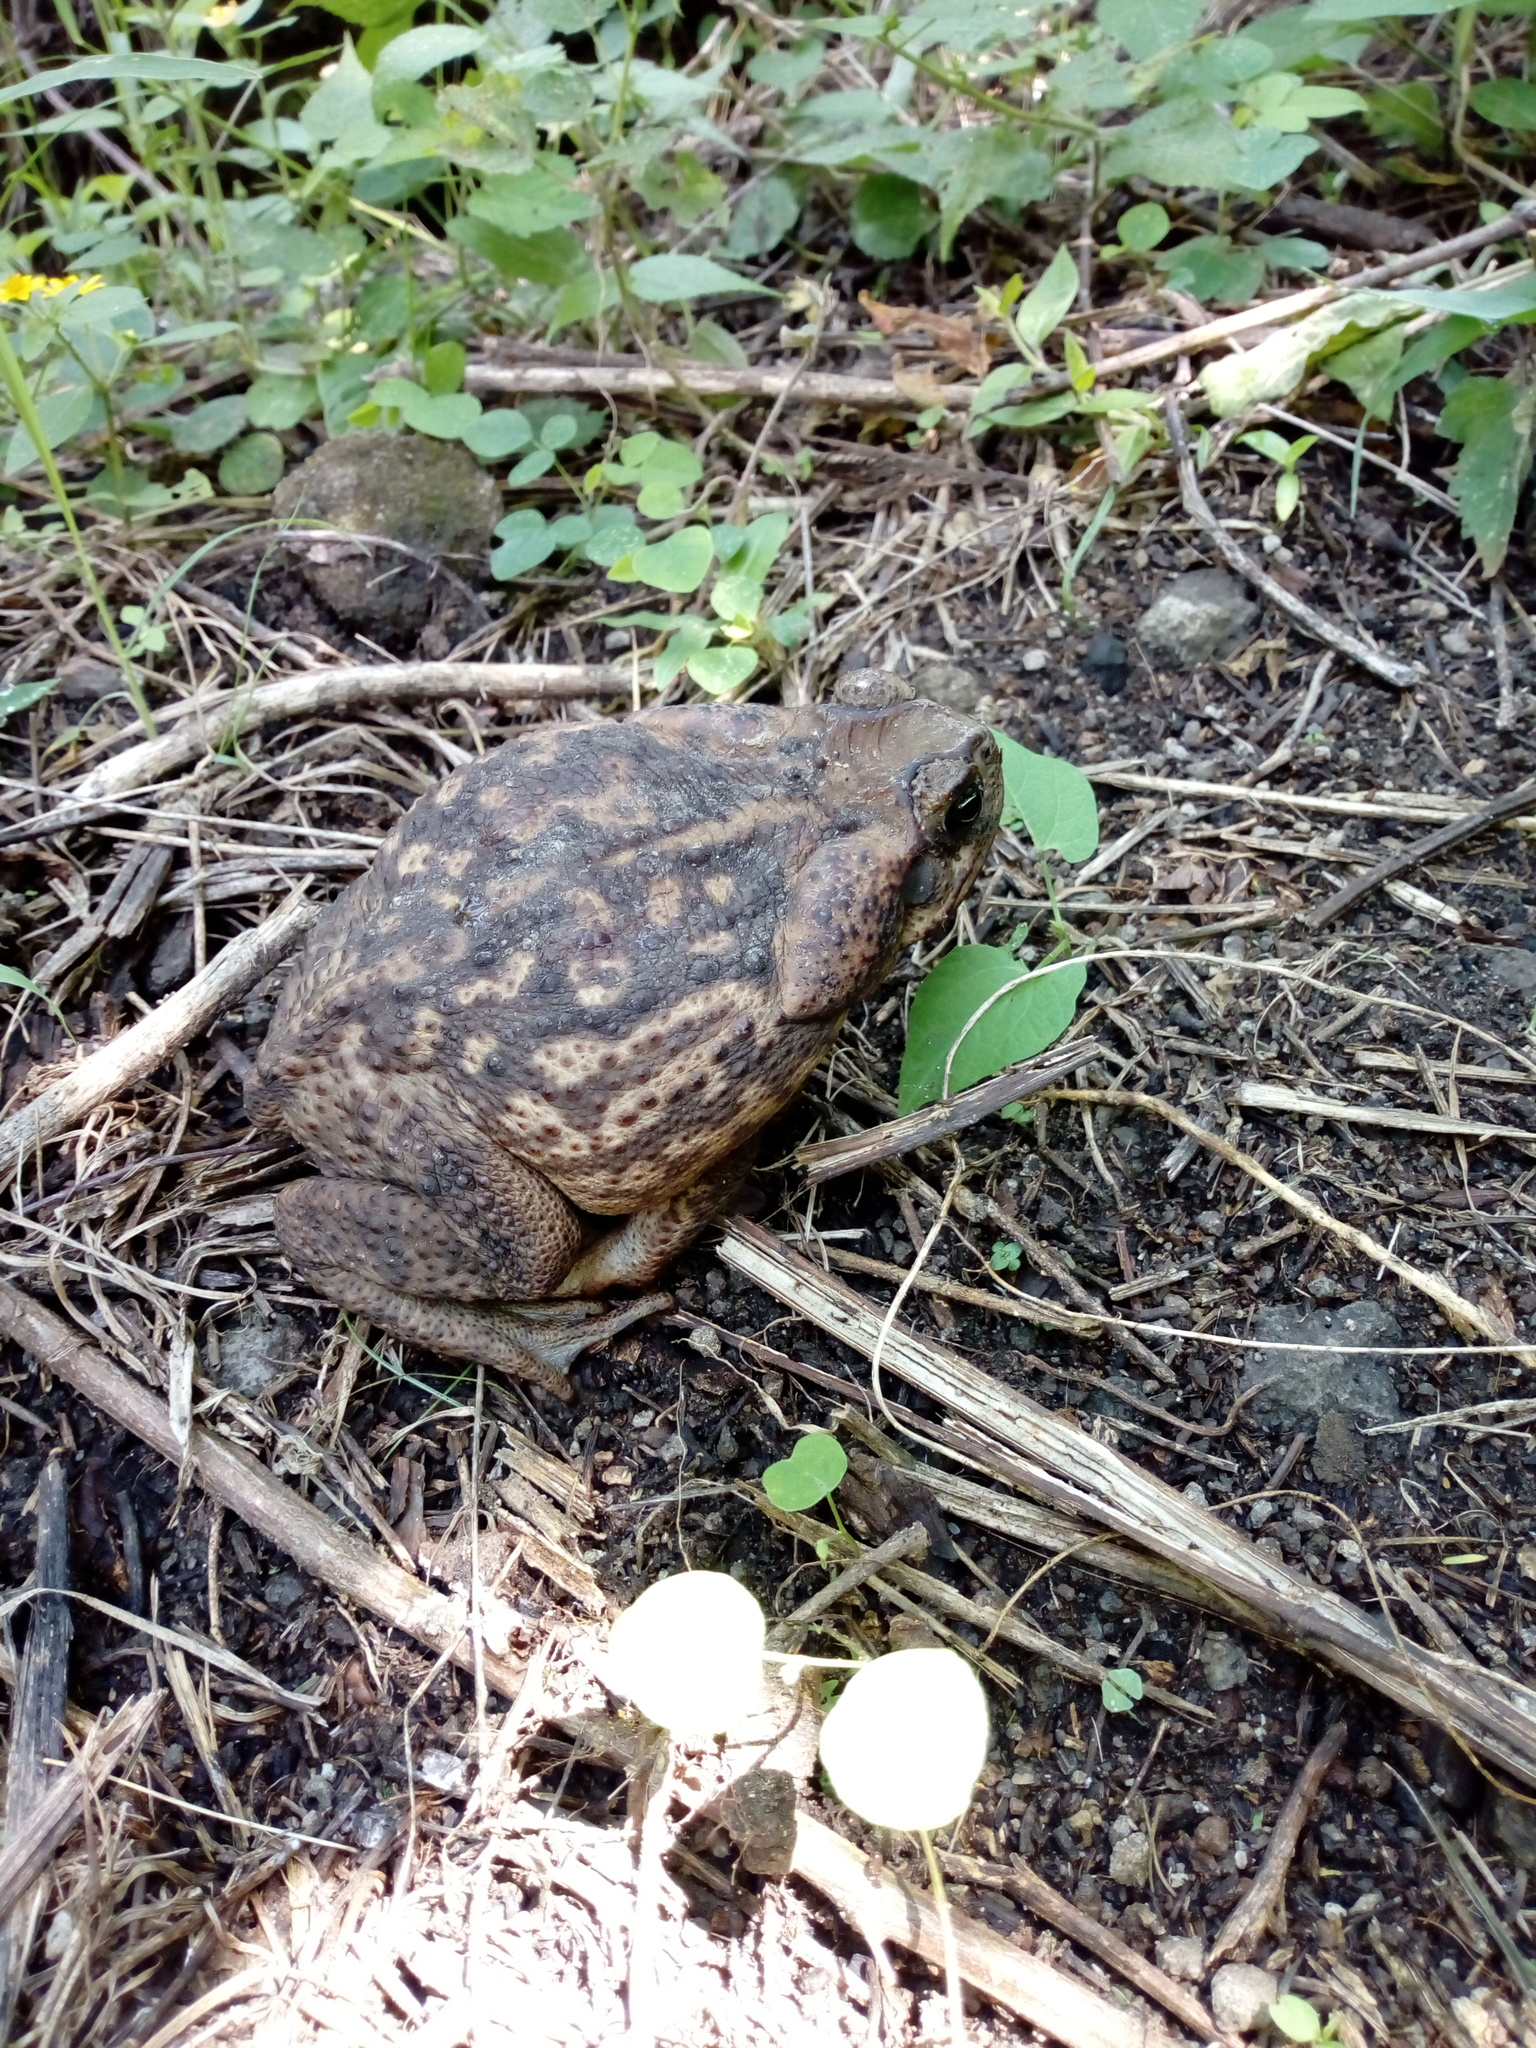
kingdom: Animalia
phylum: Chordata
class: Amphibia
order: Anura
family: Bufonidae
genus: Rhinella
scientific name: Rhinella horribilis
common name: Mesoamerican cane toad
